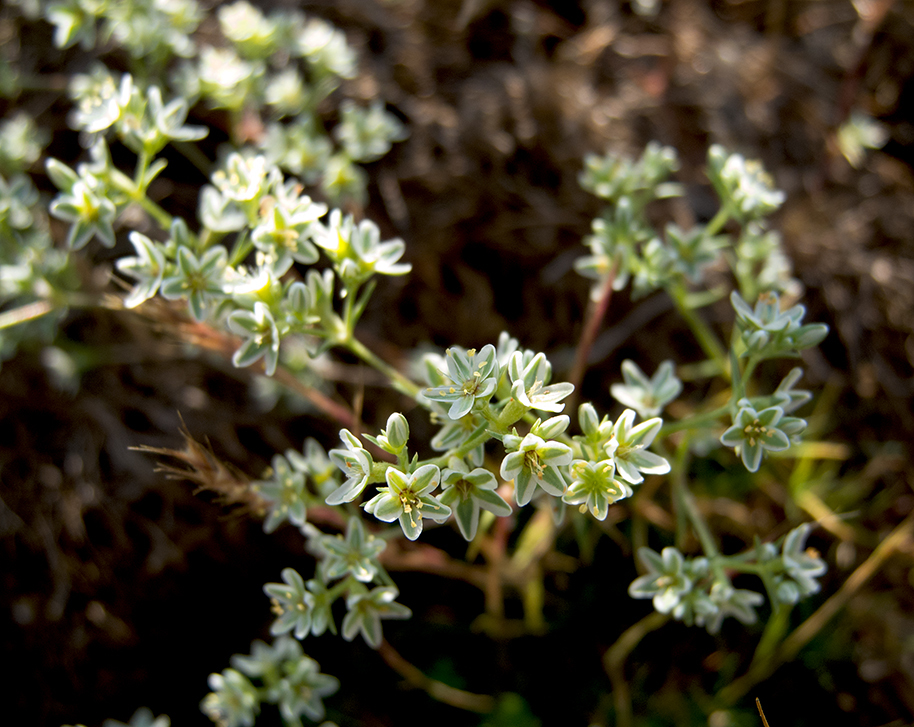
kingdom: Plantae
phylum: Tracheophyta
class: Magnoliopsida
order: Caryophyllales
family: Caryophyllaceae
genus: Scleranthus
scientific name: Scleranthus perennis
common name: Perennial knawel
